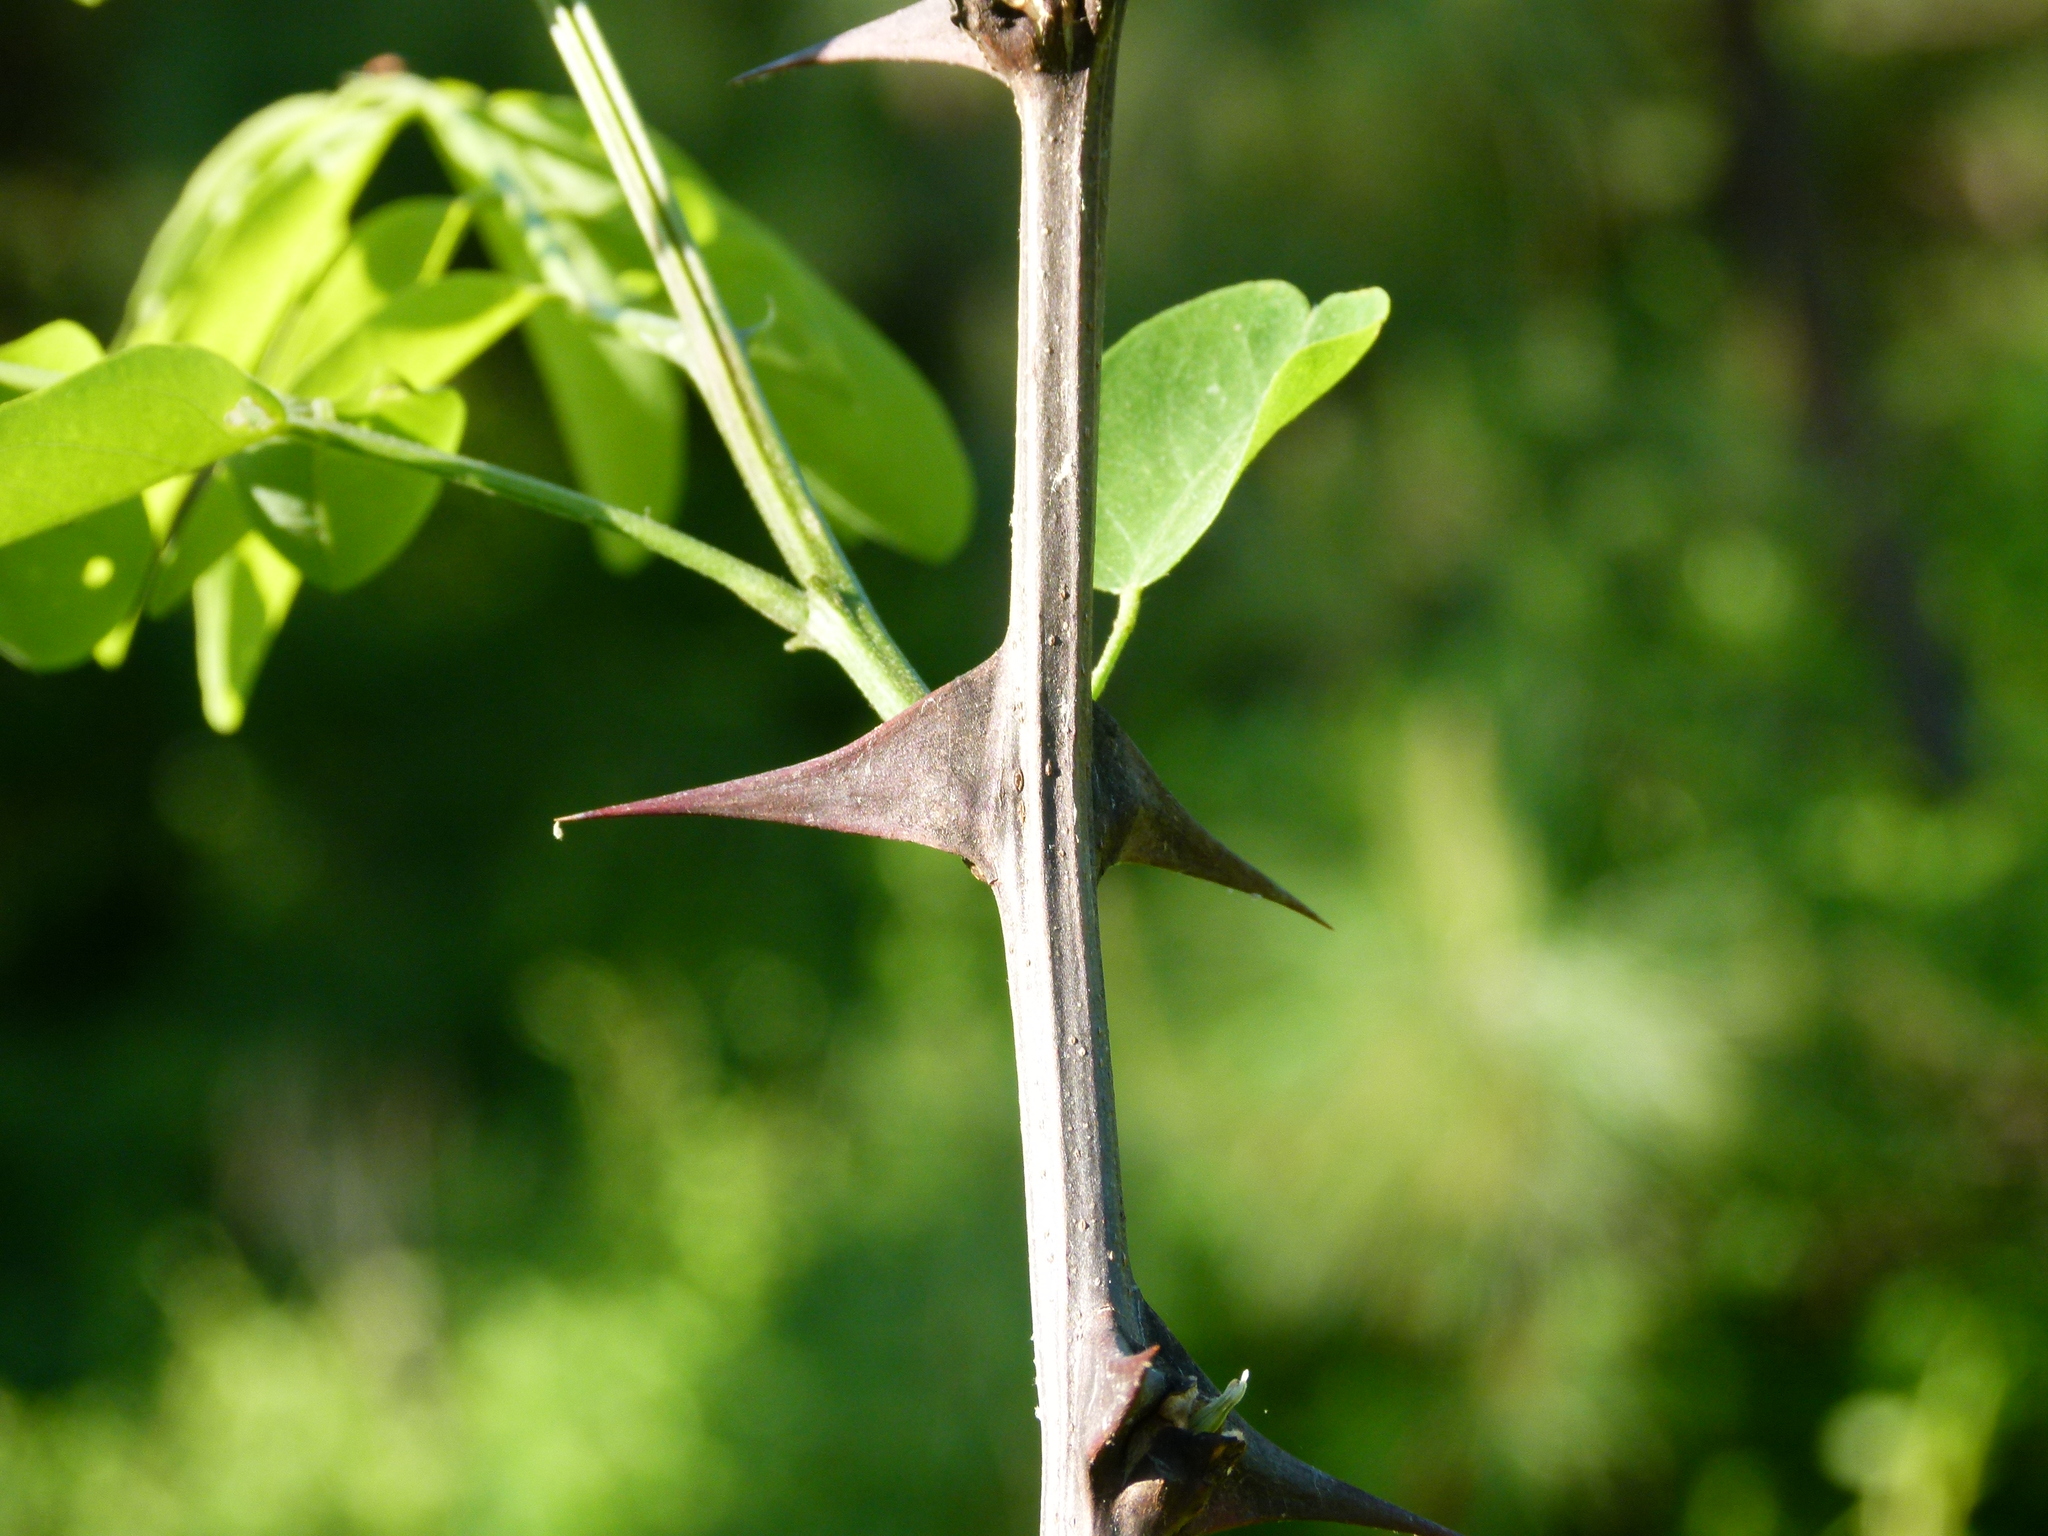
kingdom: Plantae
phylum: Tracheophyta
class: Magnoliopsida
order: Fabales
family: Fabaceae
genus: Robinia
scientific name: Robinia pseudoacacia
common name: Black locust
